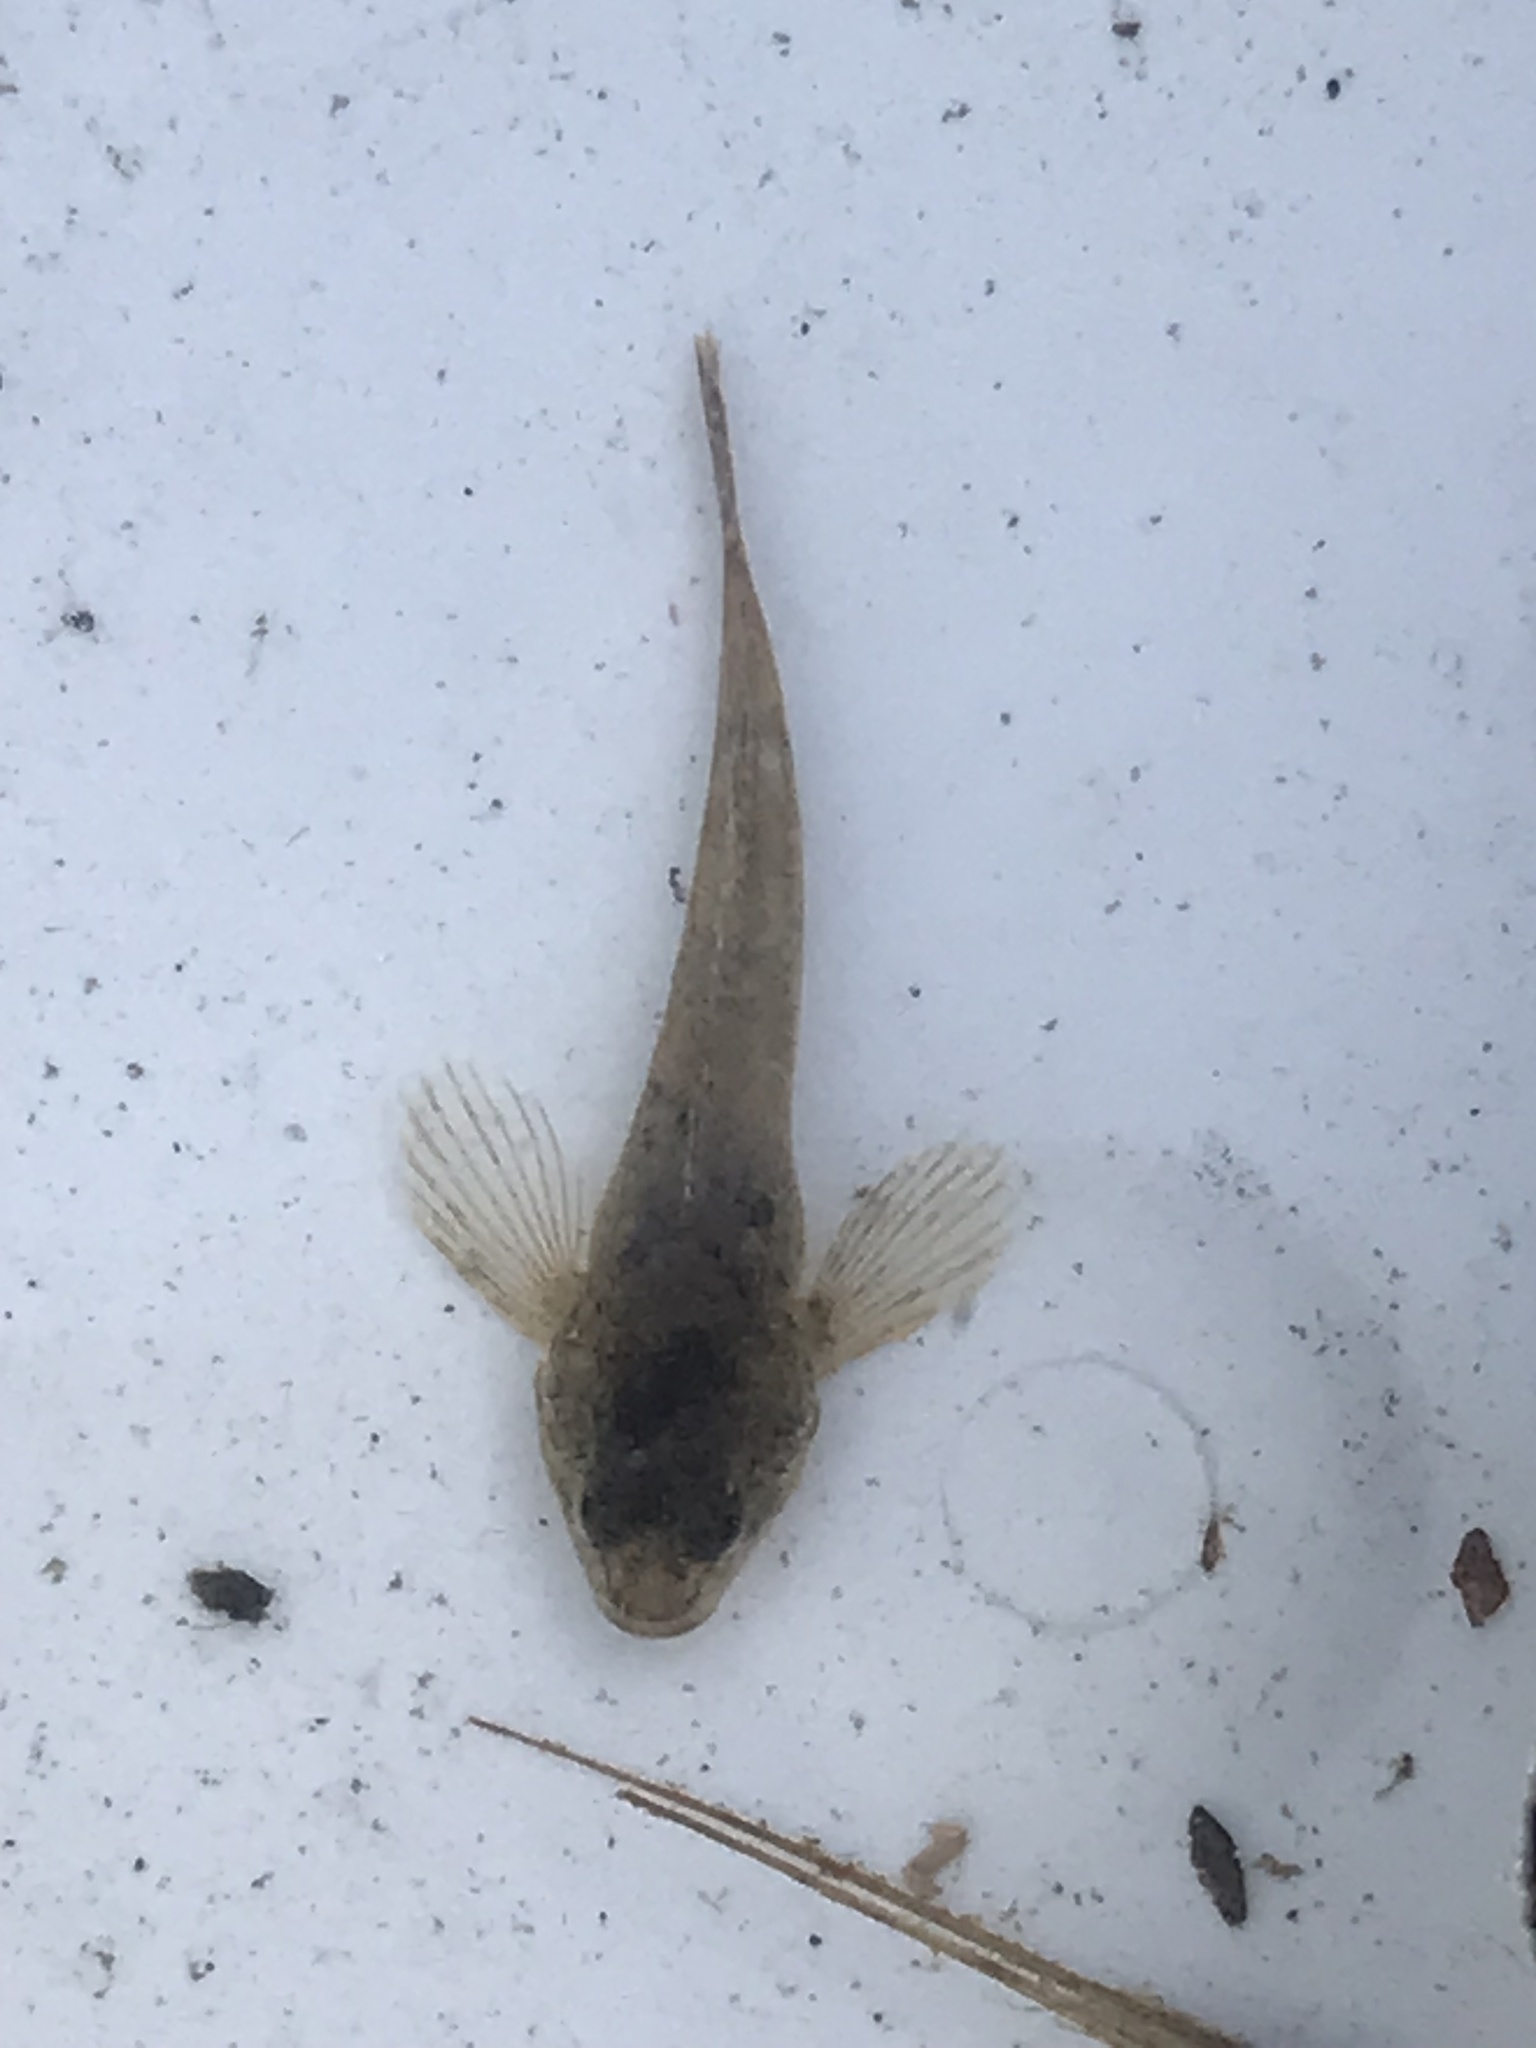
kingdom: Animalia
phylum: Chordata
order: Scorpaeniformes
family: Cottidae
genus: Cottus
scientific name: Cottus perifretum
